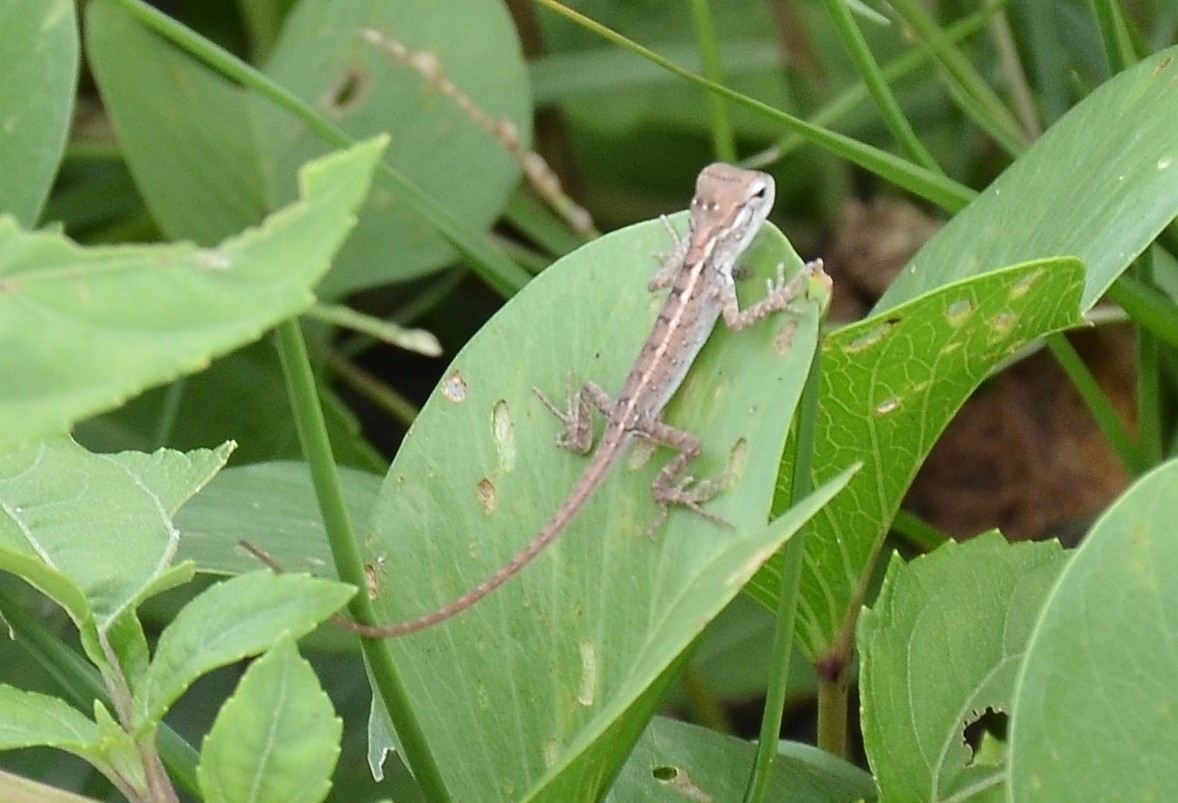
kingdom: Animalia
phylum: Chordata
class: Squamata
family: Agamidae
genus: Calotes
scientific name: Calotes versicolor
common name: Oriental garden lizard
